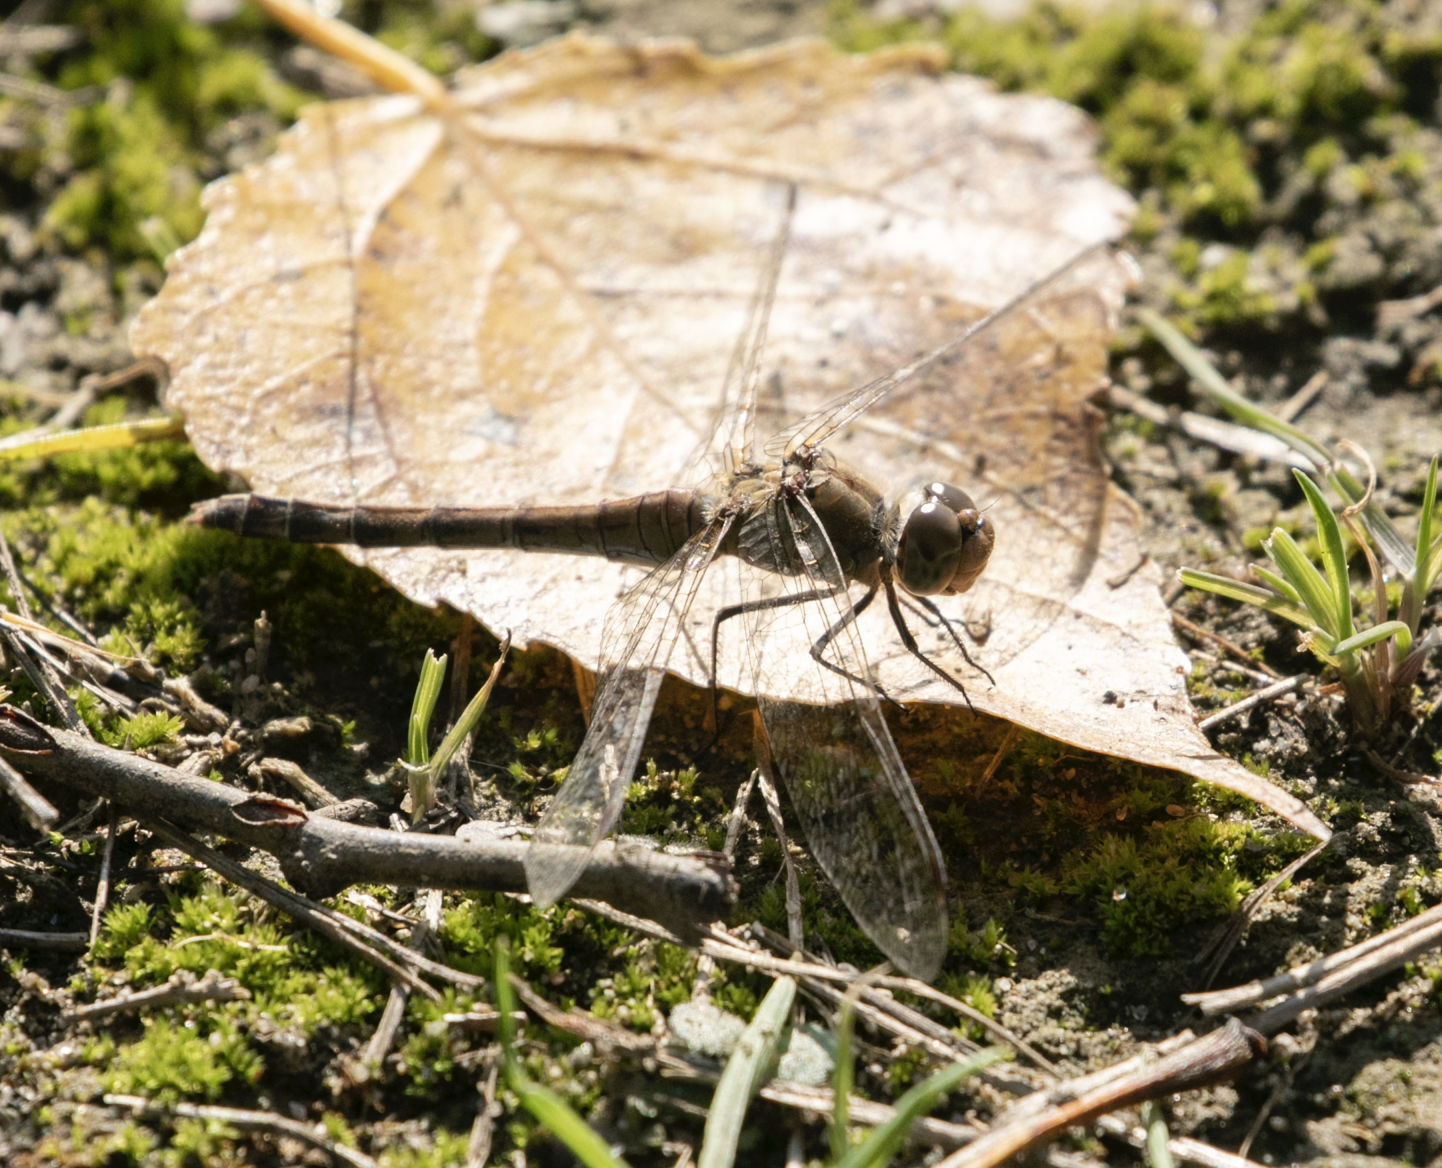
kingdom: Animalia
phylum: Arthropoda
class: Insecta
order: Odonata
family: Libellulidae
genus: Sympetrum
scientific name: Sympetrum striolatum
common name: Common darter
